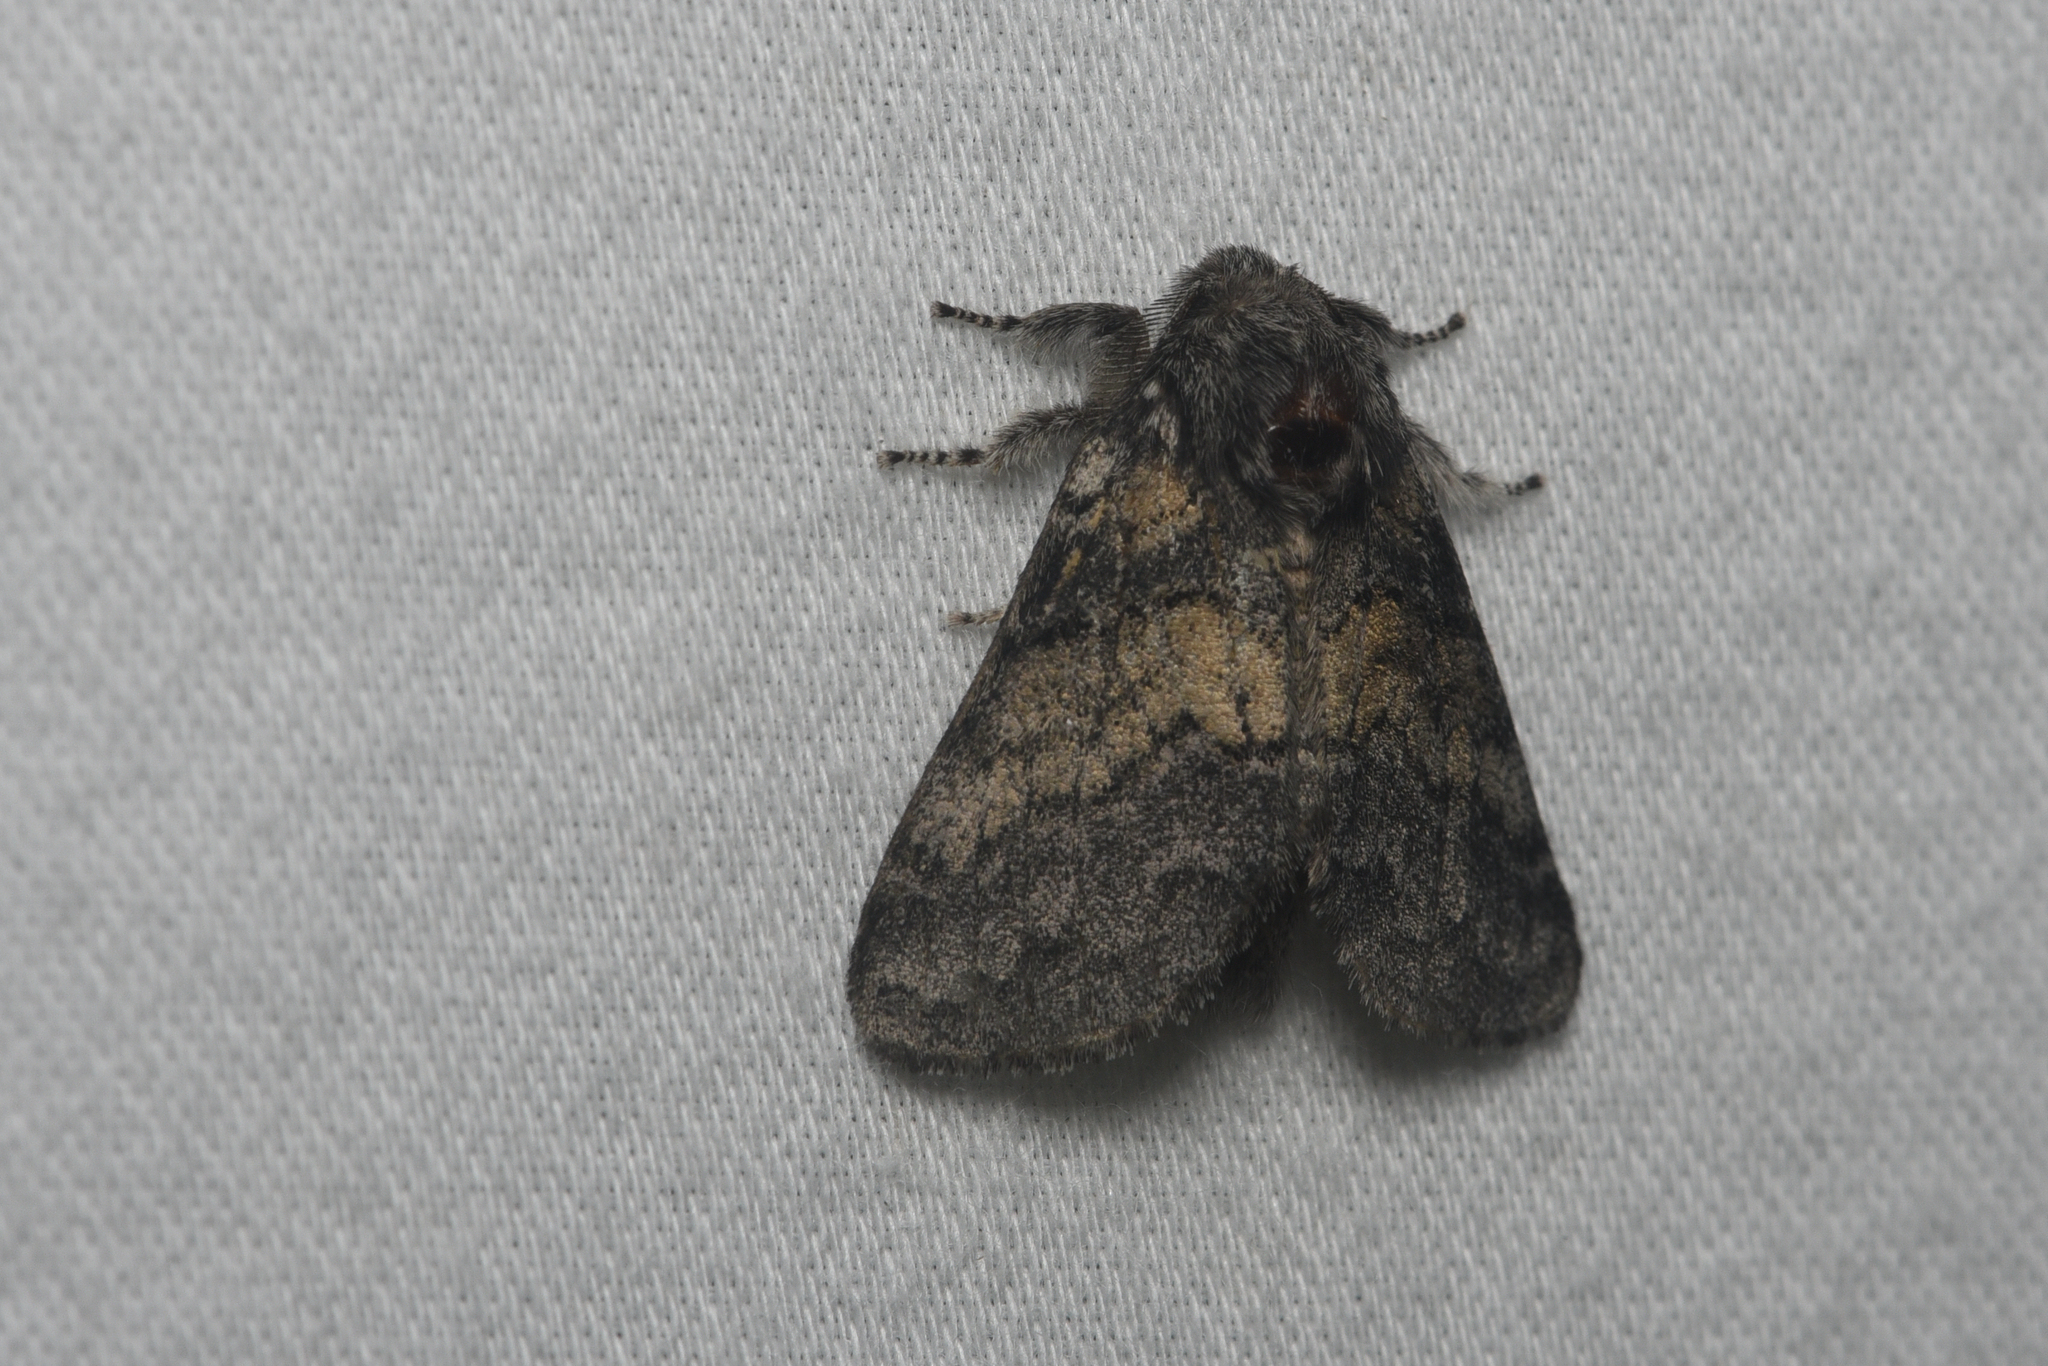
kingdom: Animalia
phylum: Arthropoda
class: Insecta
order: Lepidoptera
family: Notodontidae
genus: Gluphisia
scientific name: Gluphisia septentrionis
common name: Common gluphisia
